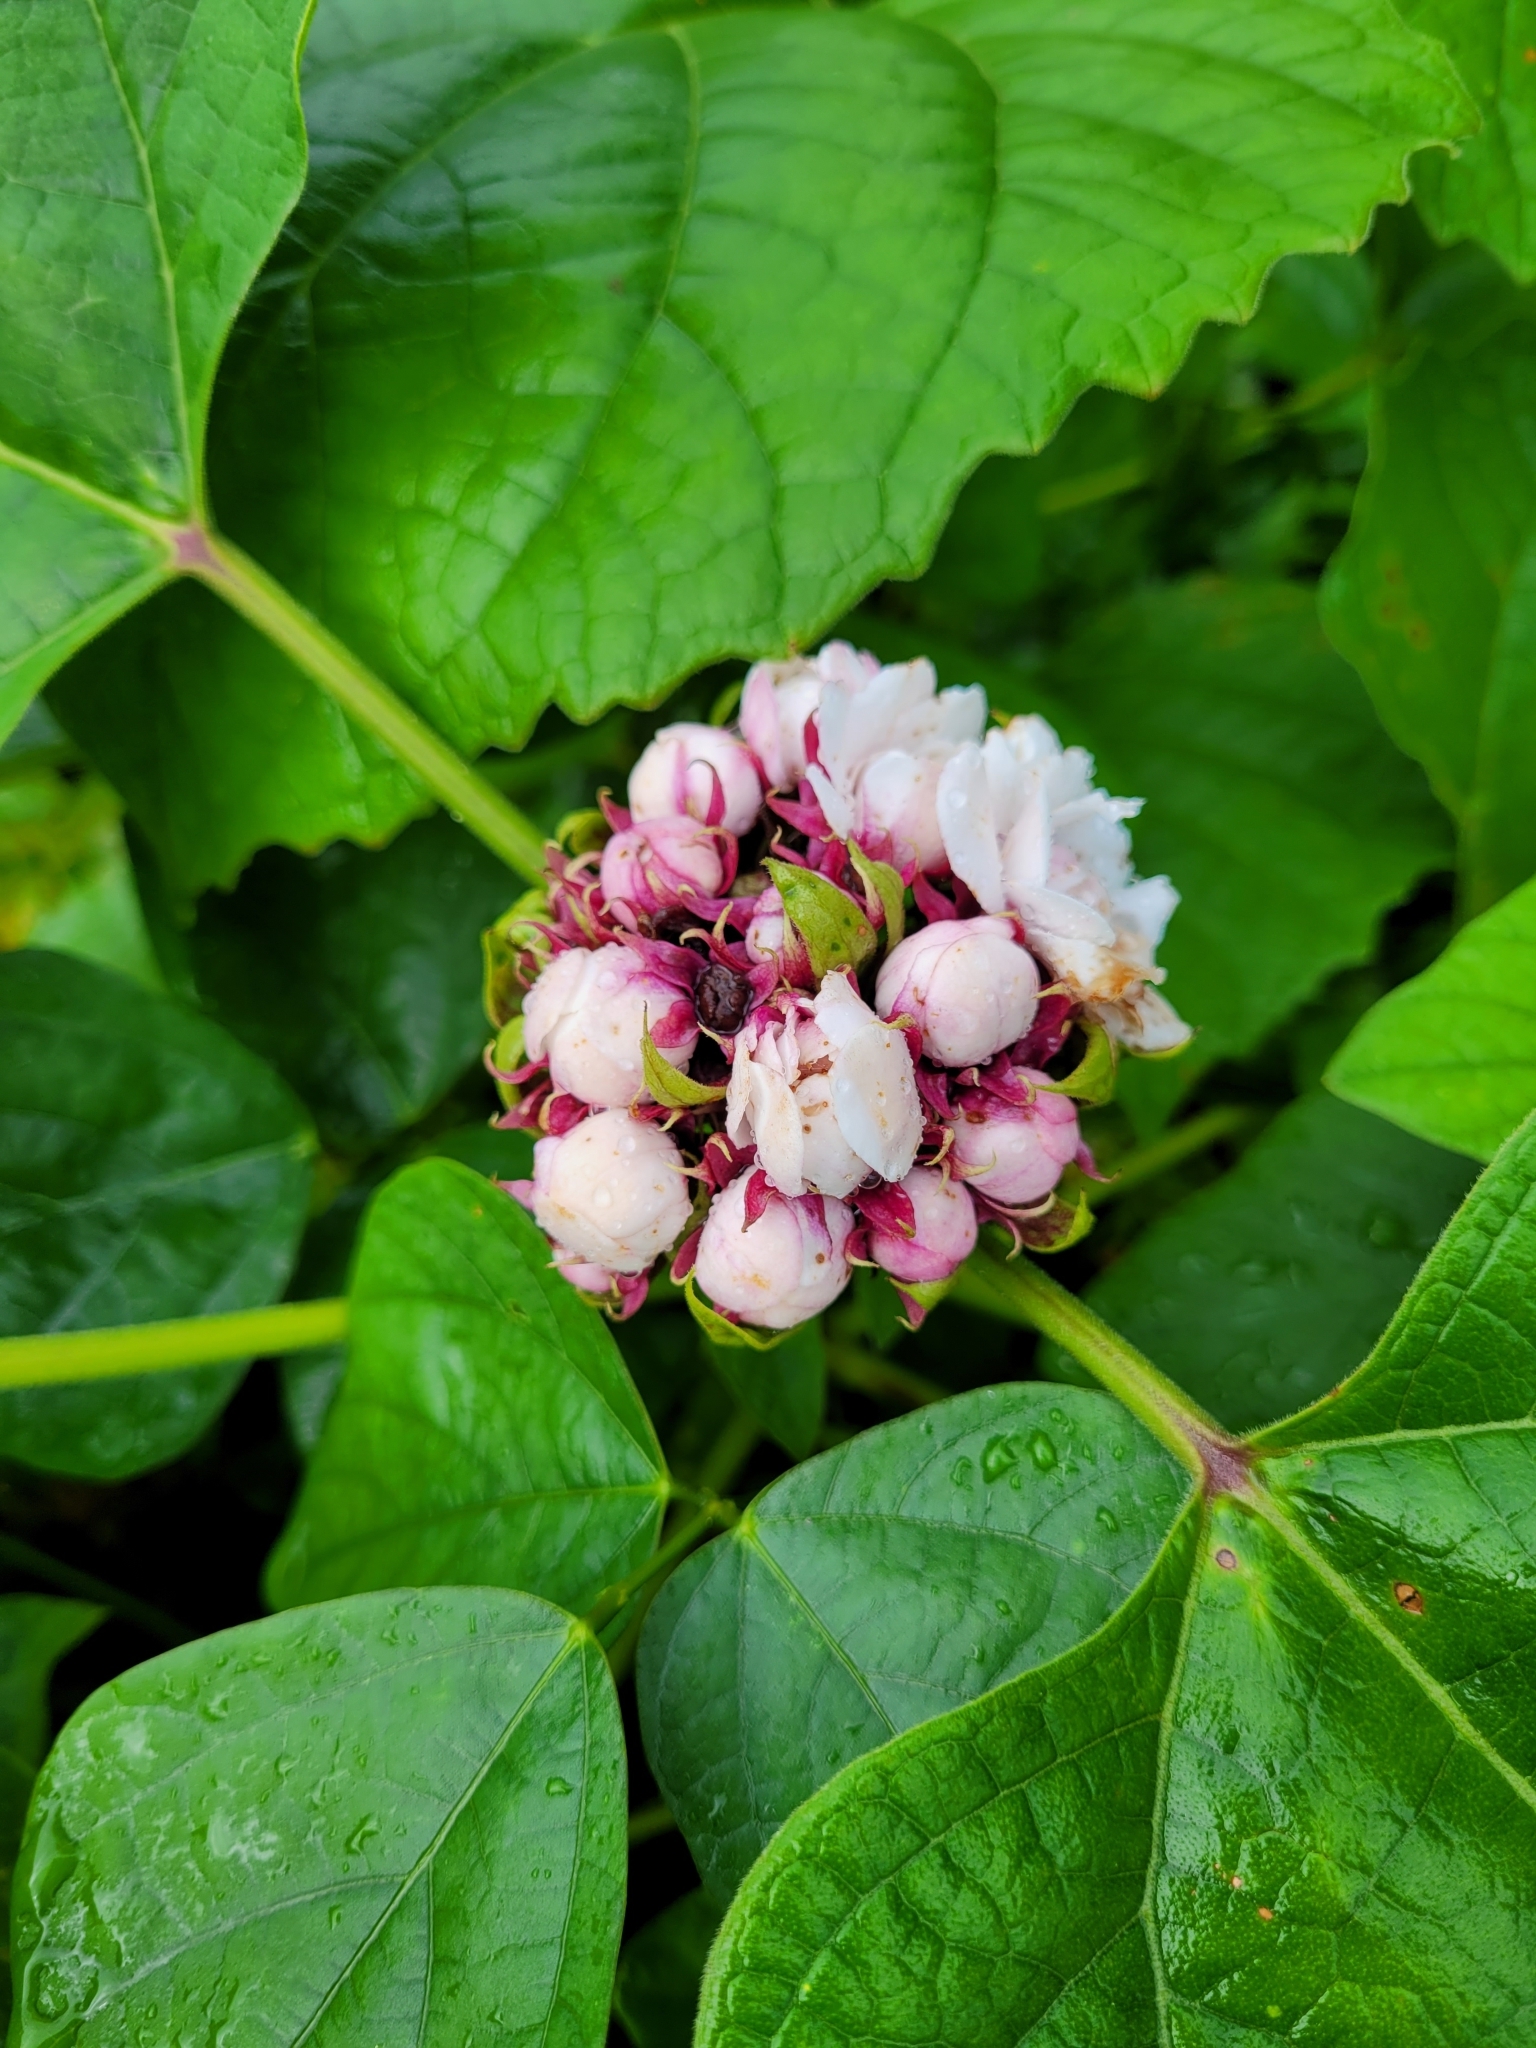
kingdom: Plantae
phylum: Tracheophyta
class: Magnoliopsida
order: Lamiales
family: Lamiaceae
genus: Clerodendrum
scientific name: Clerodendrum chinense
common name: Stickbush
